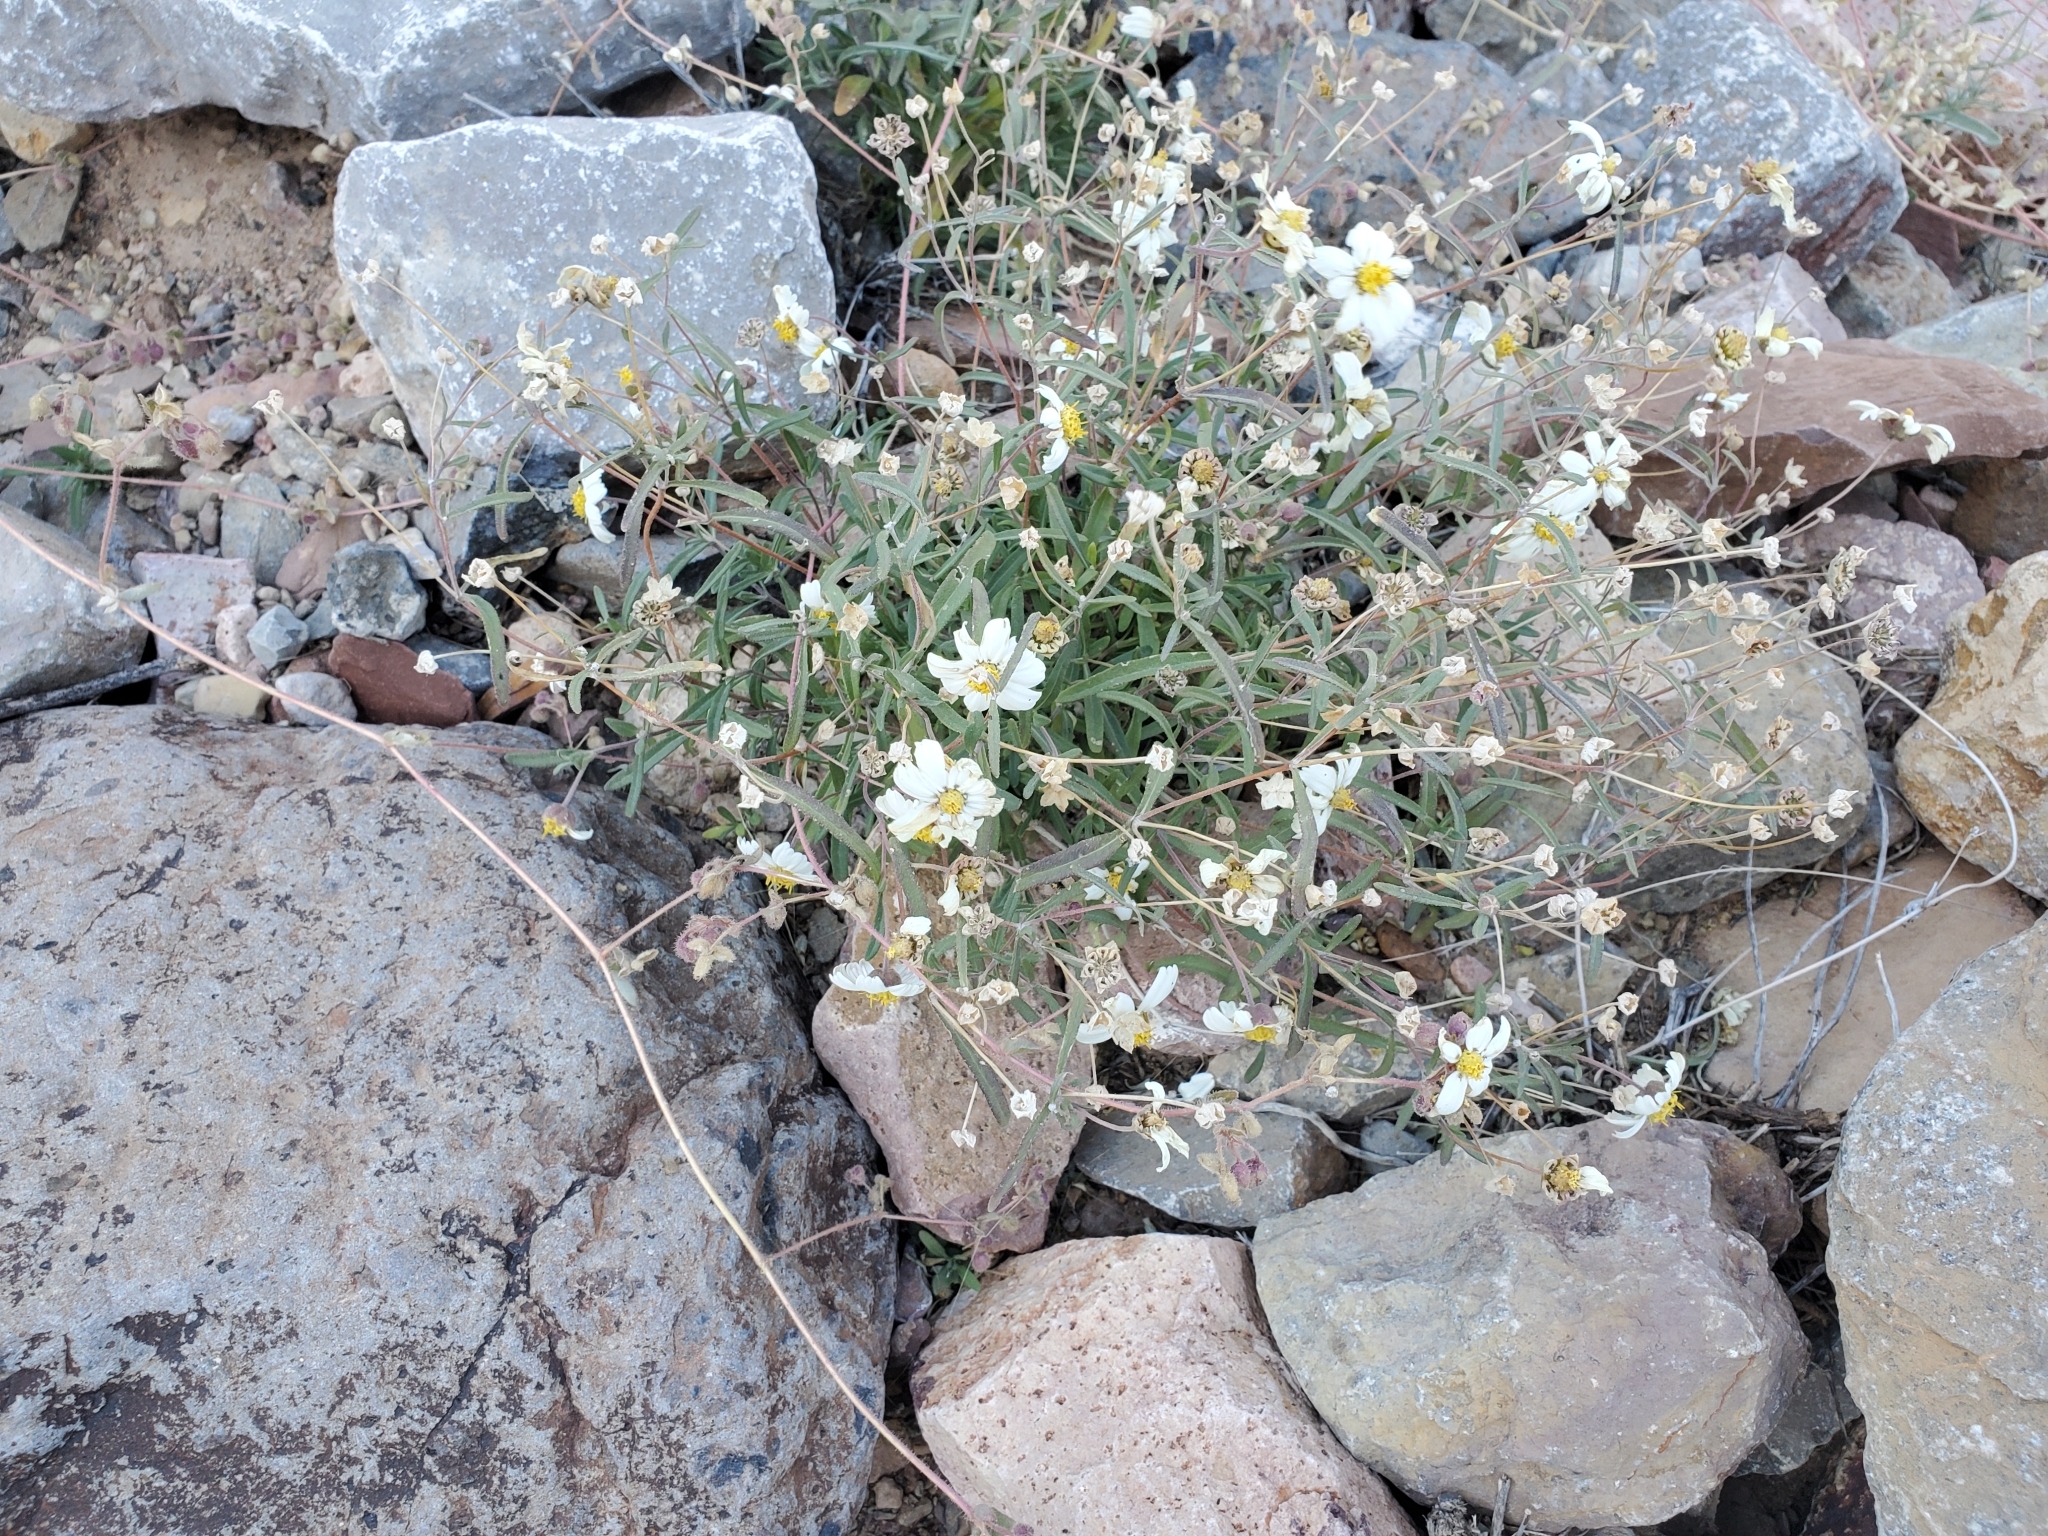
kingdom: Plantae
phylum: Tracheophyta
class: Magnoliopsida
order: Asterales
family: Asteraceae
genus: Melampodium
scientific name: Melampodium leucanthum
